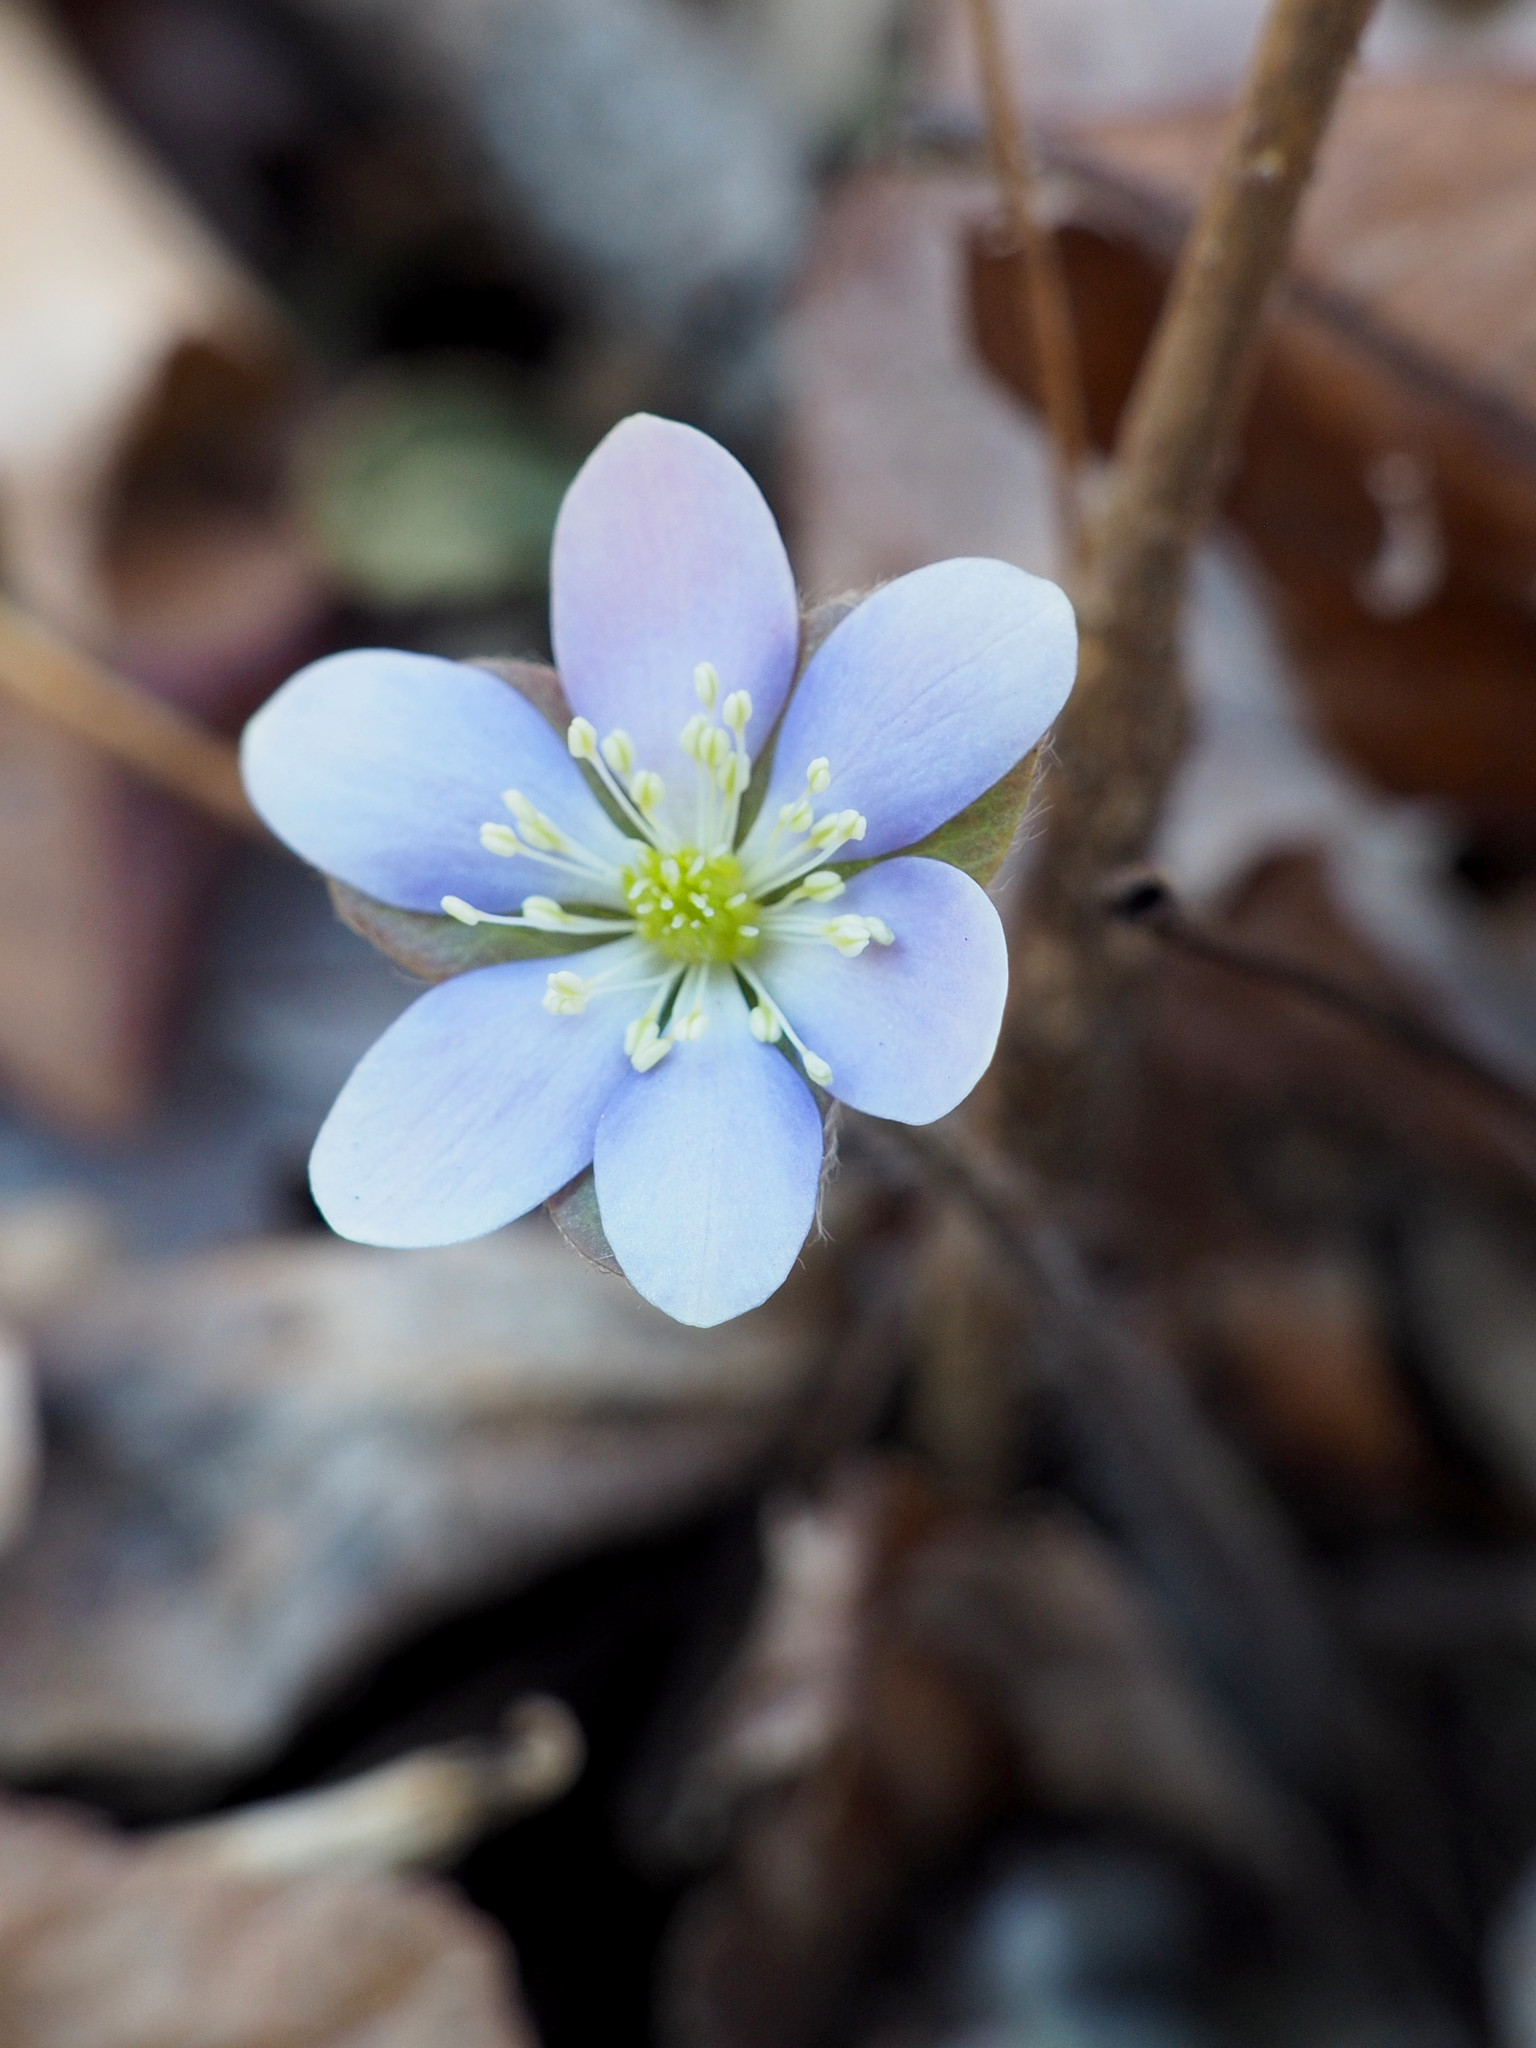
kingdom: Plantae
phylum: Tracheophyta
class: Magnoliopsida
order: Ranunculales
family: Ranunculaceae
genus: Hepatica
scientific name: Hepatica americana
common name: American hepatica
